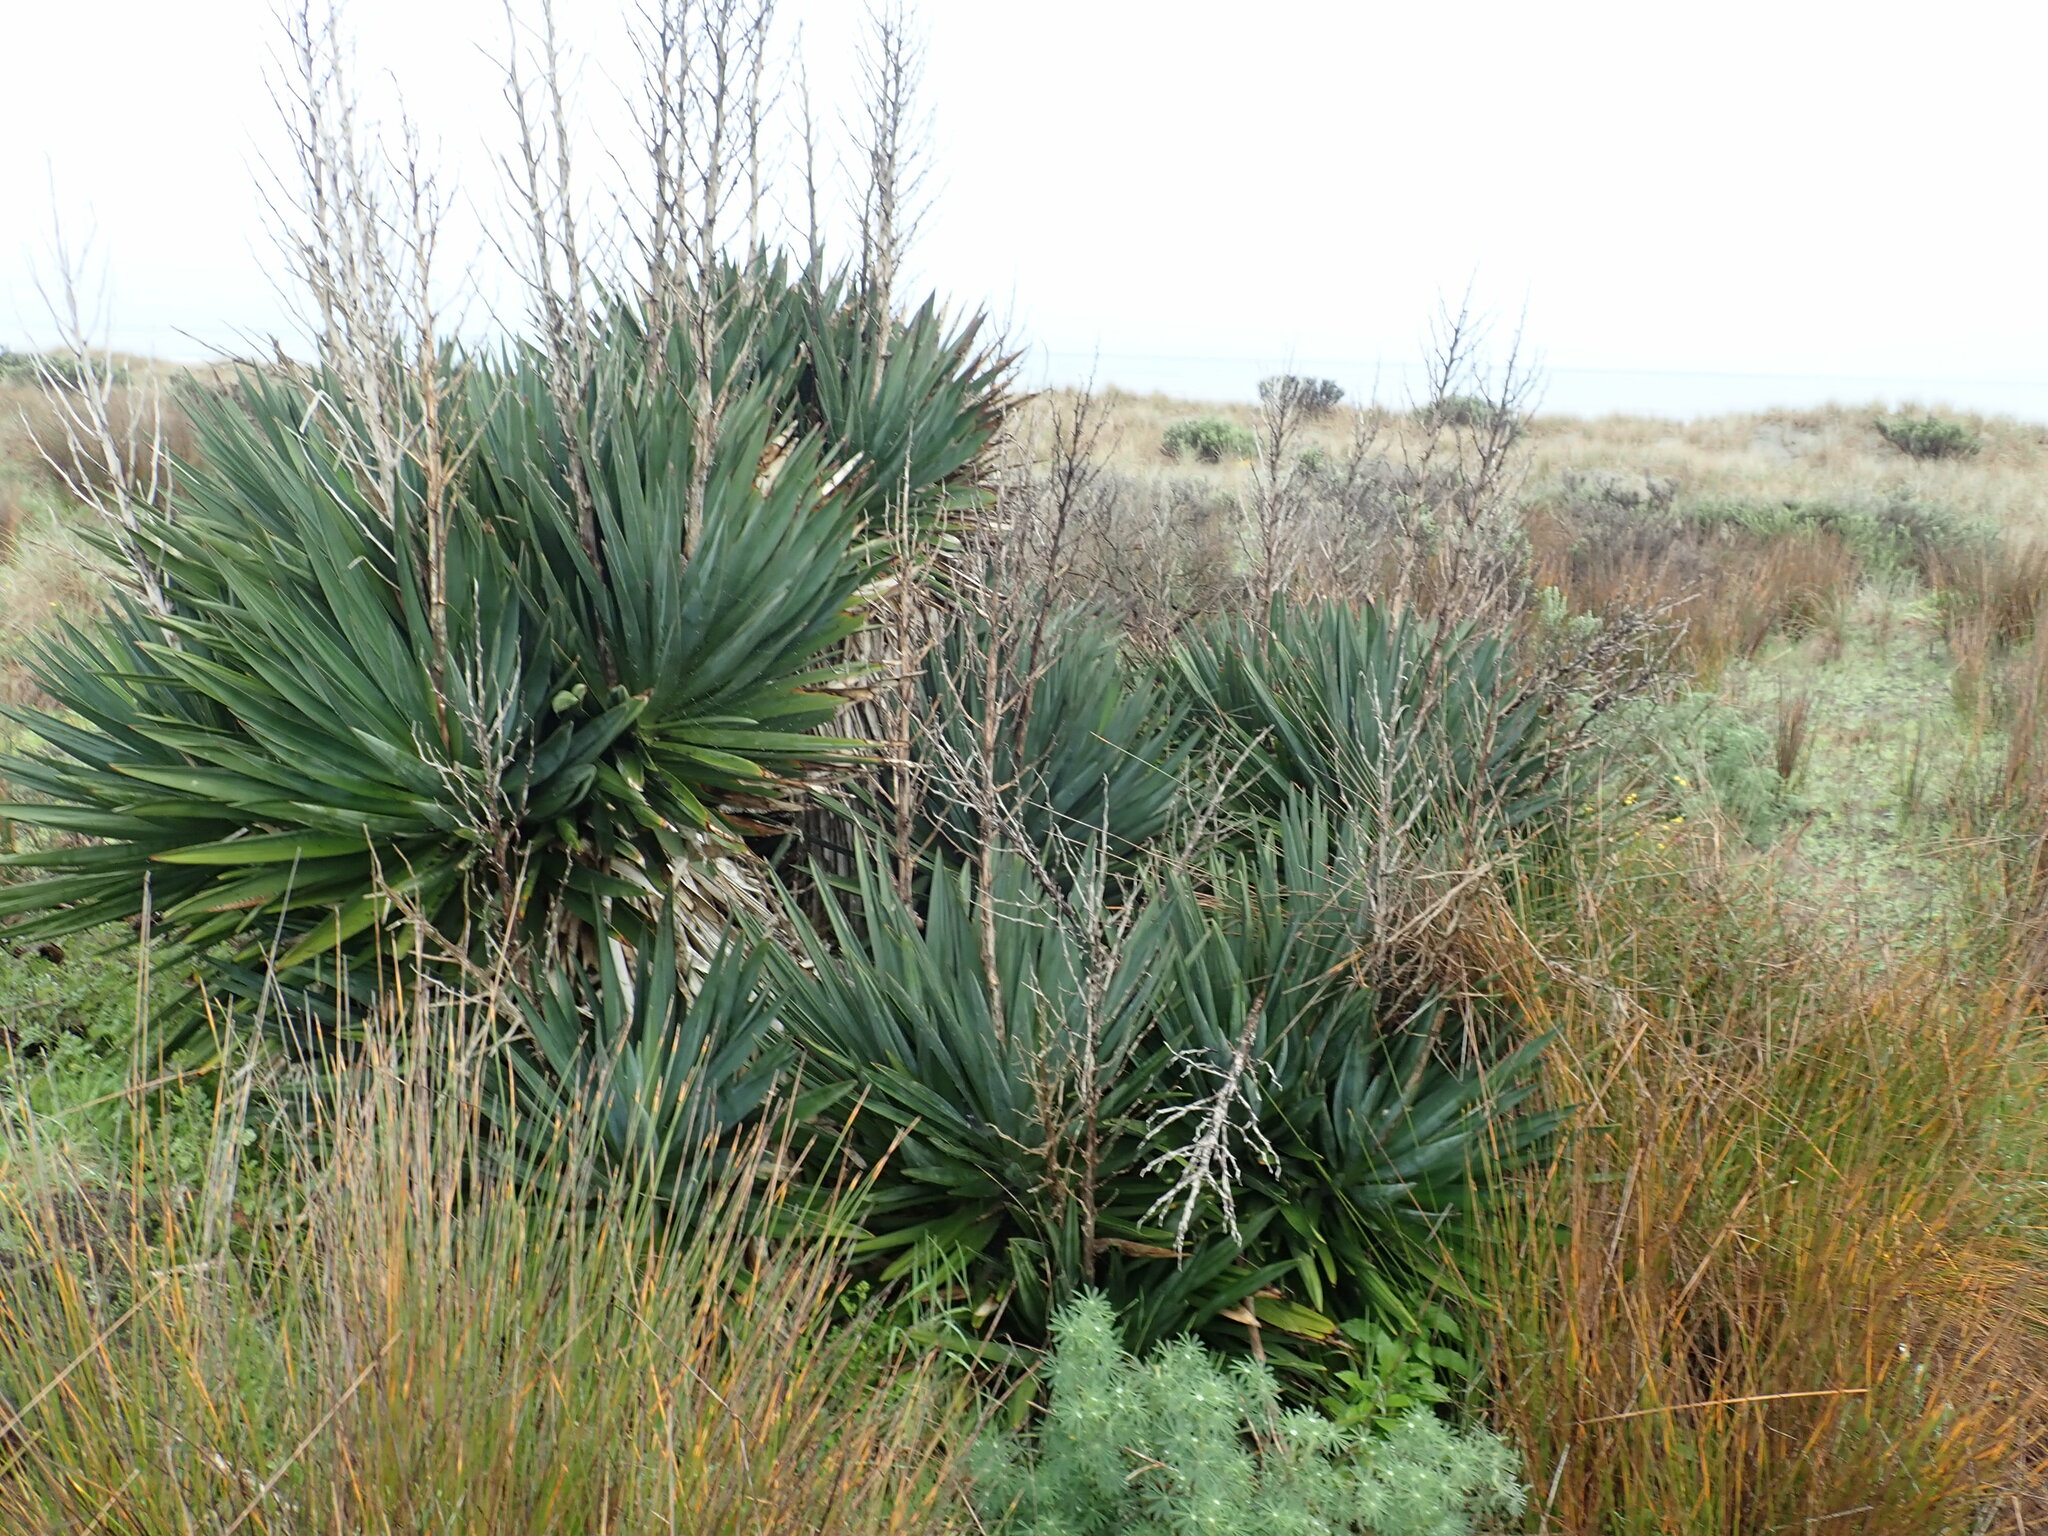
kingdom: Plantae
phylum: Tracheophyta
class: Liliopsida
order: Asparagales
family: Asparagaceae
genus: Yucca
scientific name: Yucca gloriosa
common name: Spanish-dagger
